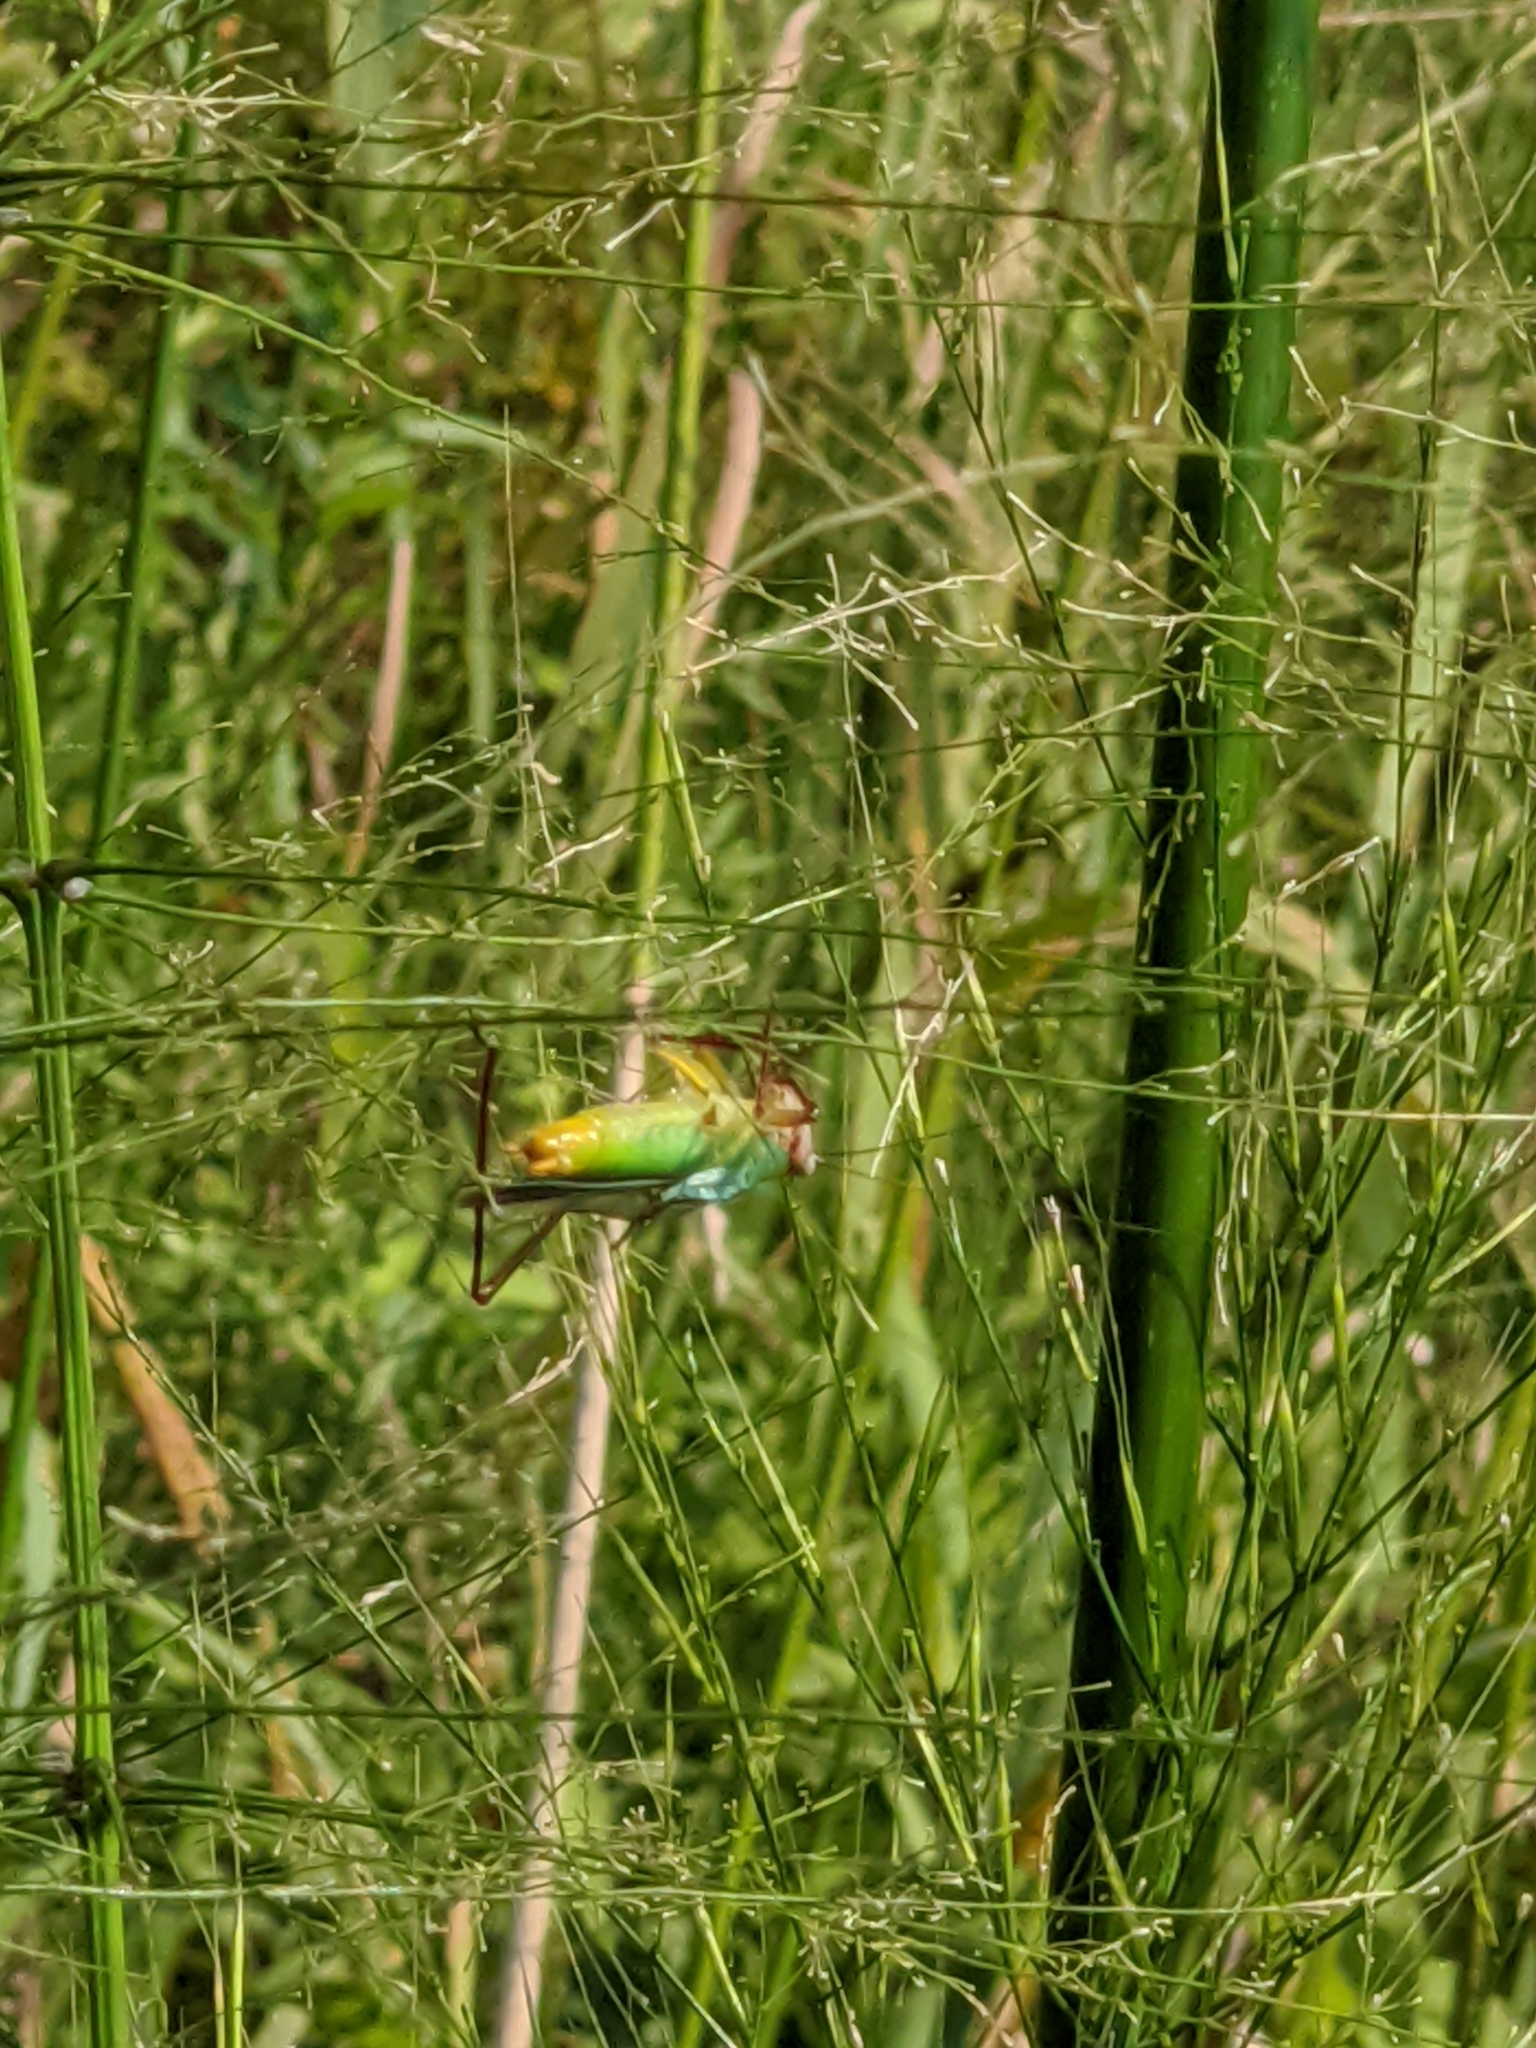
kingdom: Animalia
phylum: Arthropoda
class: Insecta
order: Orthoptera
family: Tettigoniidae
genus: Orchelimum
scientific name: Orchelimum pulchellum
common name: Handsome meadow katydid
